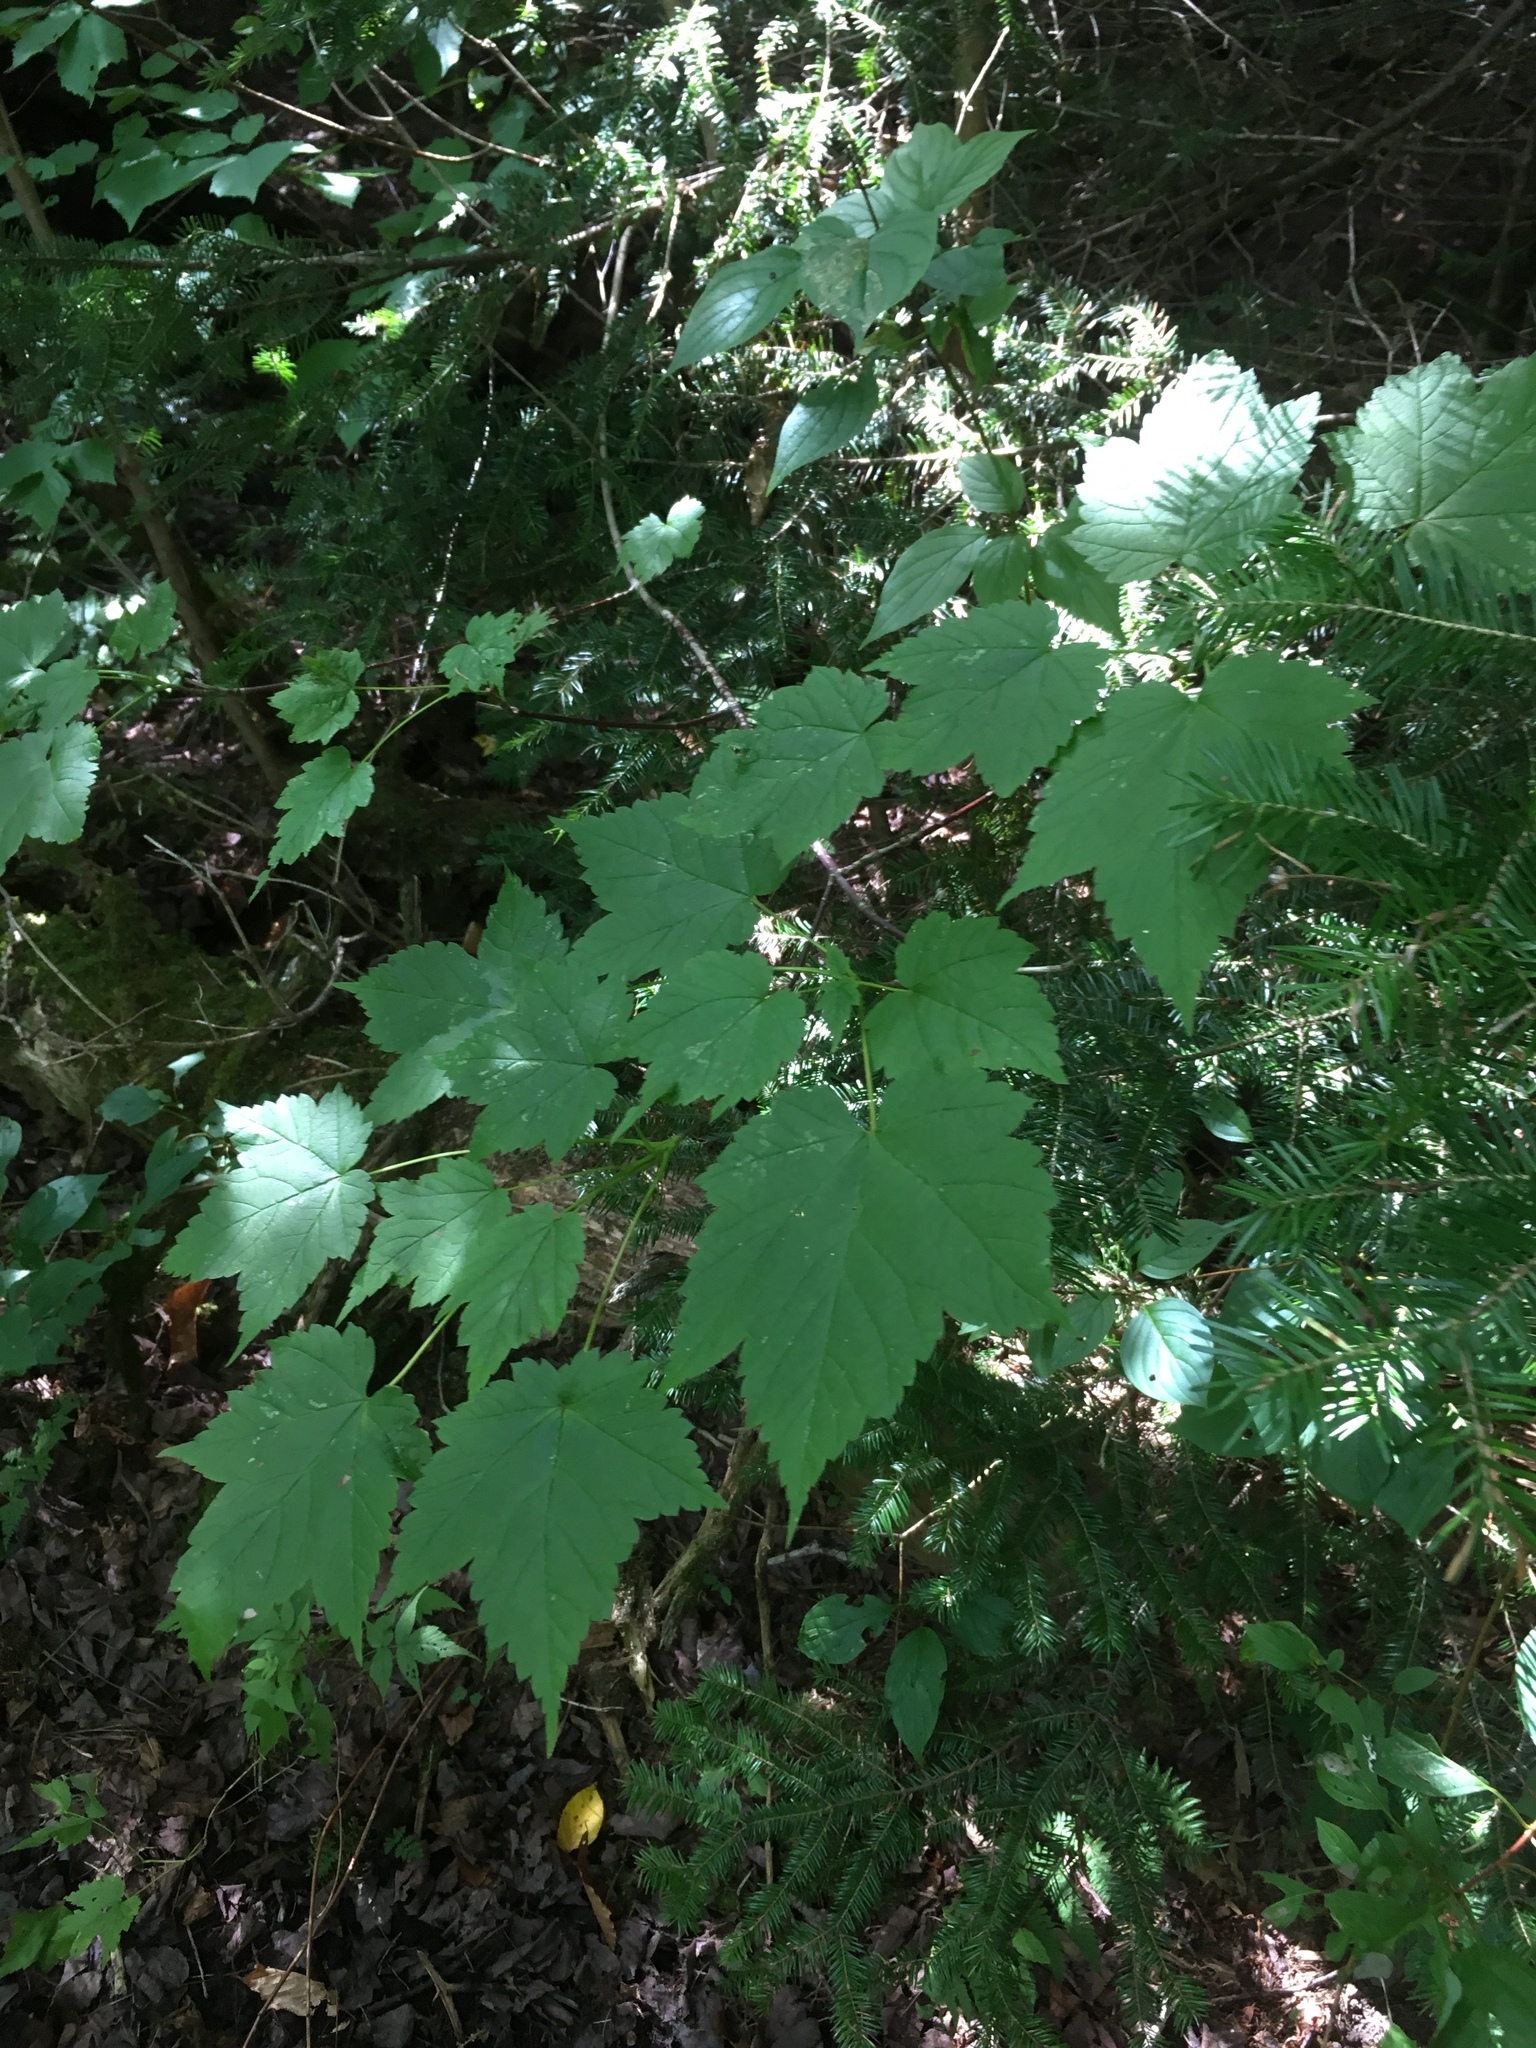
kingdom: Plantae
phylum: Tracheophyta
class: Magnoliopsida
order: Sapindales
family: Sapindaceae
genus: Acer
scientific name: Acer spicatum
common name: Mountain maple
